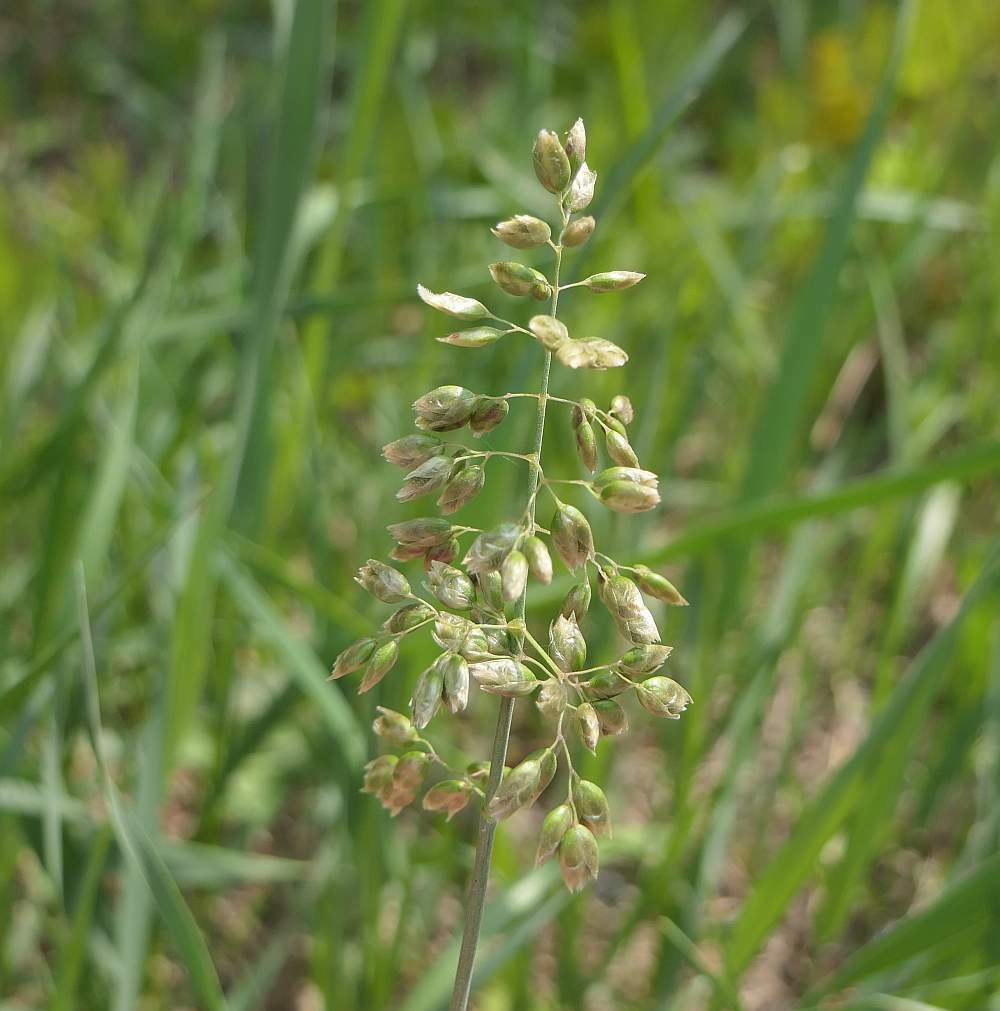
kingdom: Plantae
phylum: Tracheophyta
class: Liliopsida
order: Poales
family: Poaceae
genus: Anthoxanthum
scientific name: Anthoxanthum nitens
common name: Holy grass
